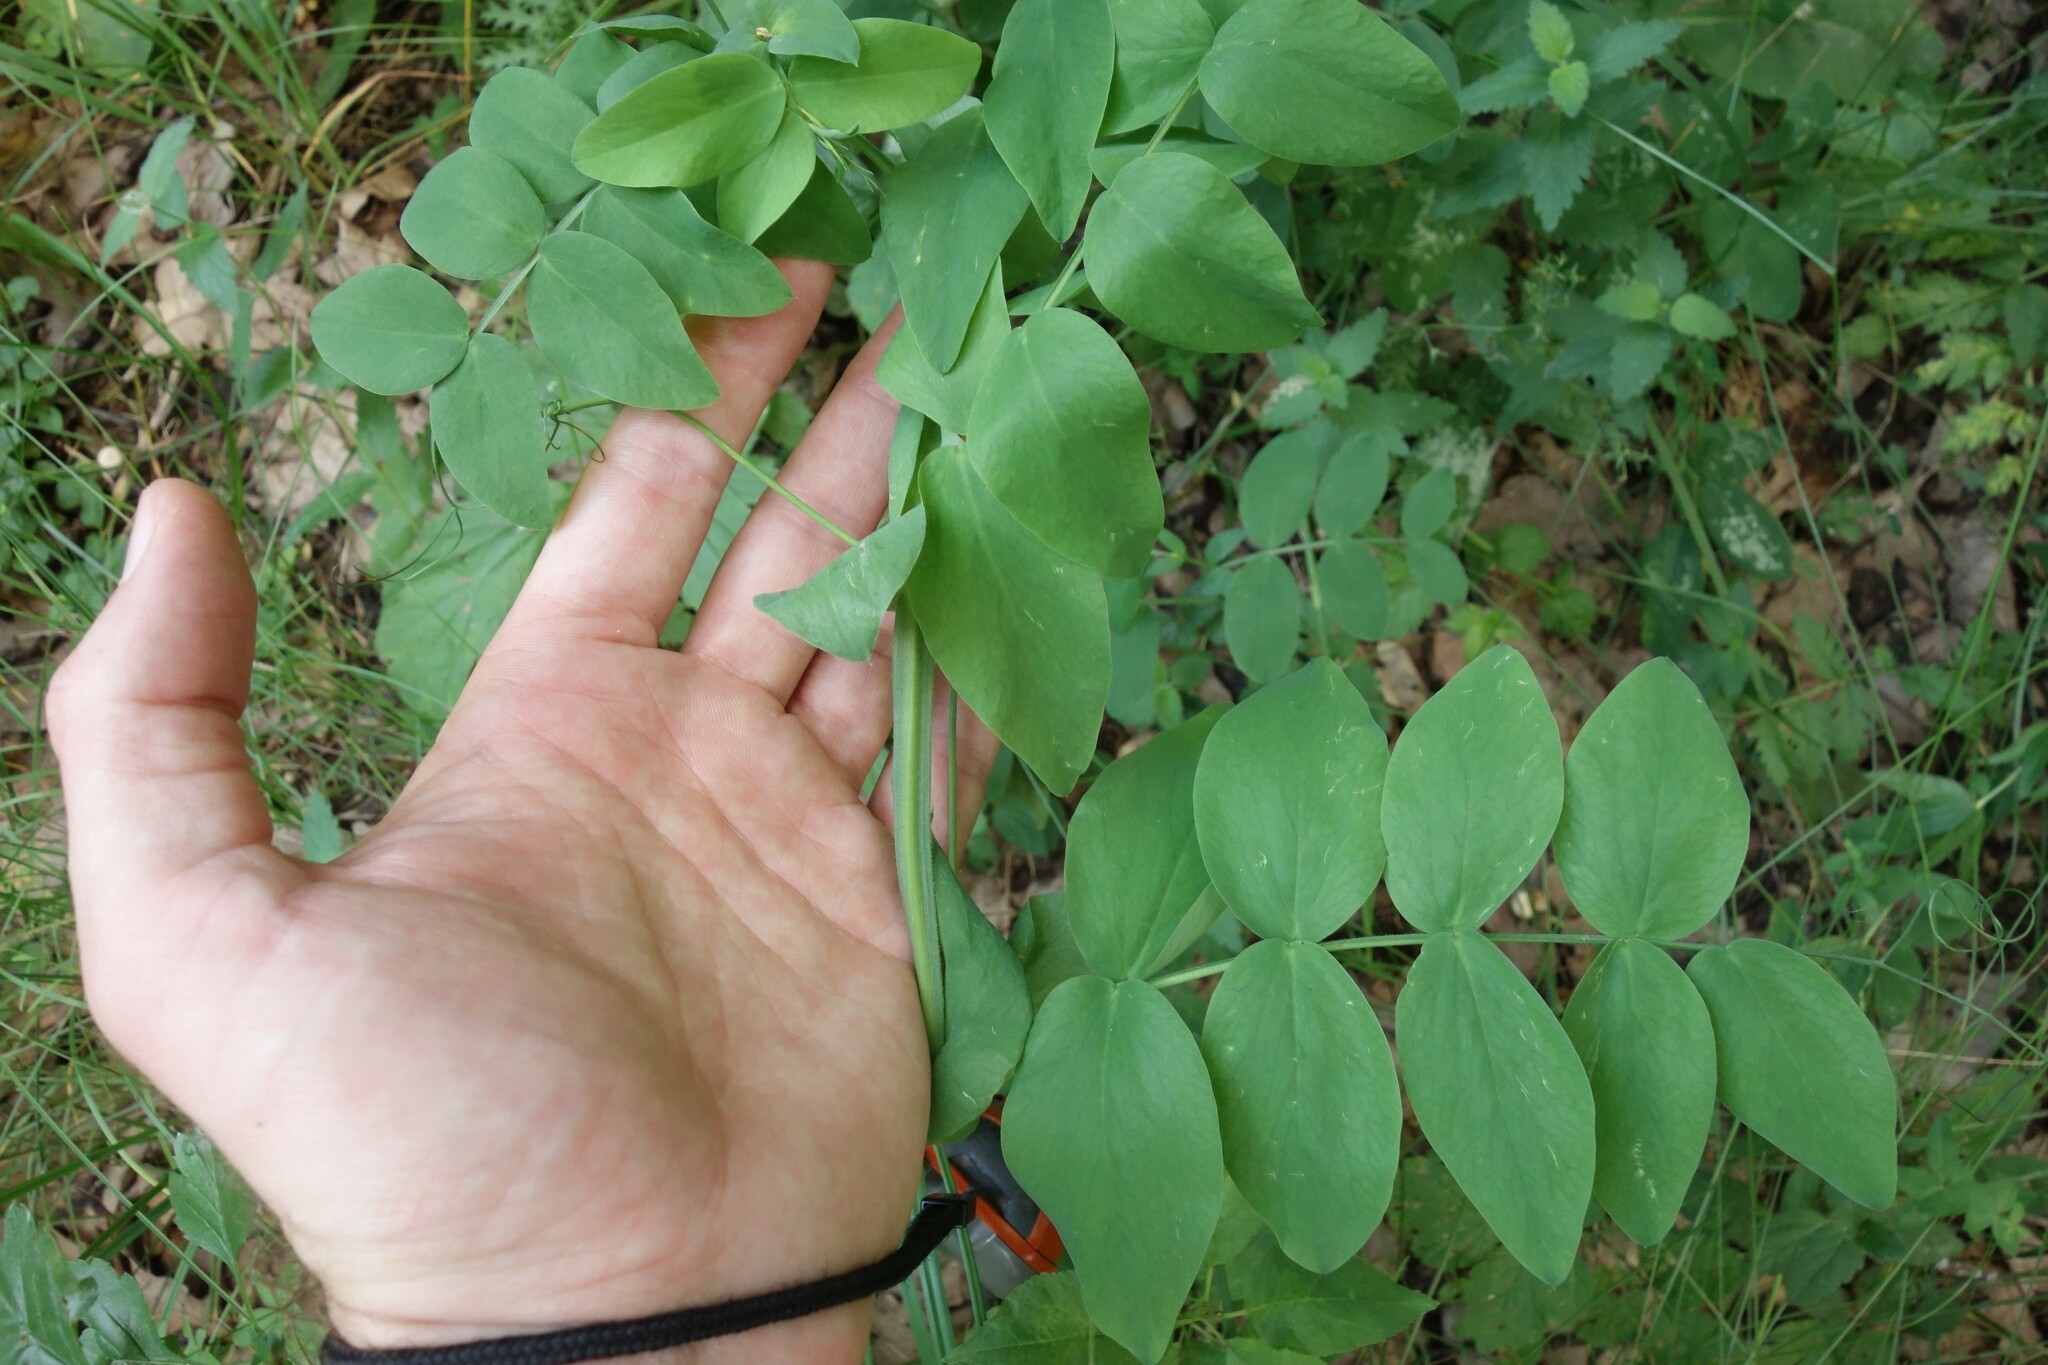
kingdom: Plantae
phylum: Tracheophyta
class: Magnoliopsida
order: Fabales
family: Fabaceae
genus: Lathyrus
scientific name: Lathyrus pisiformis
